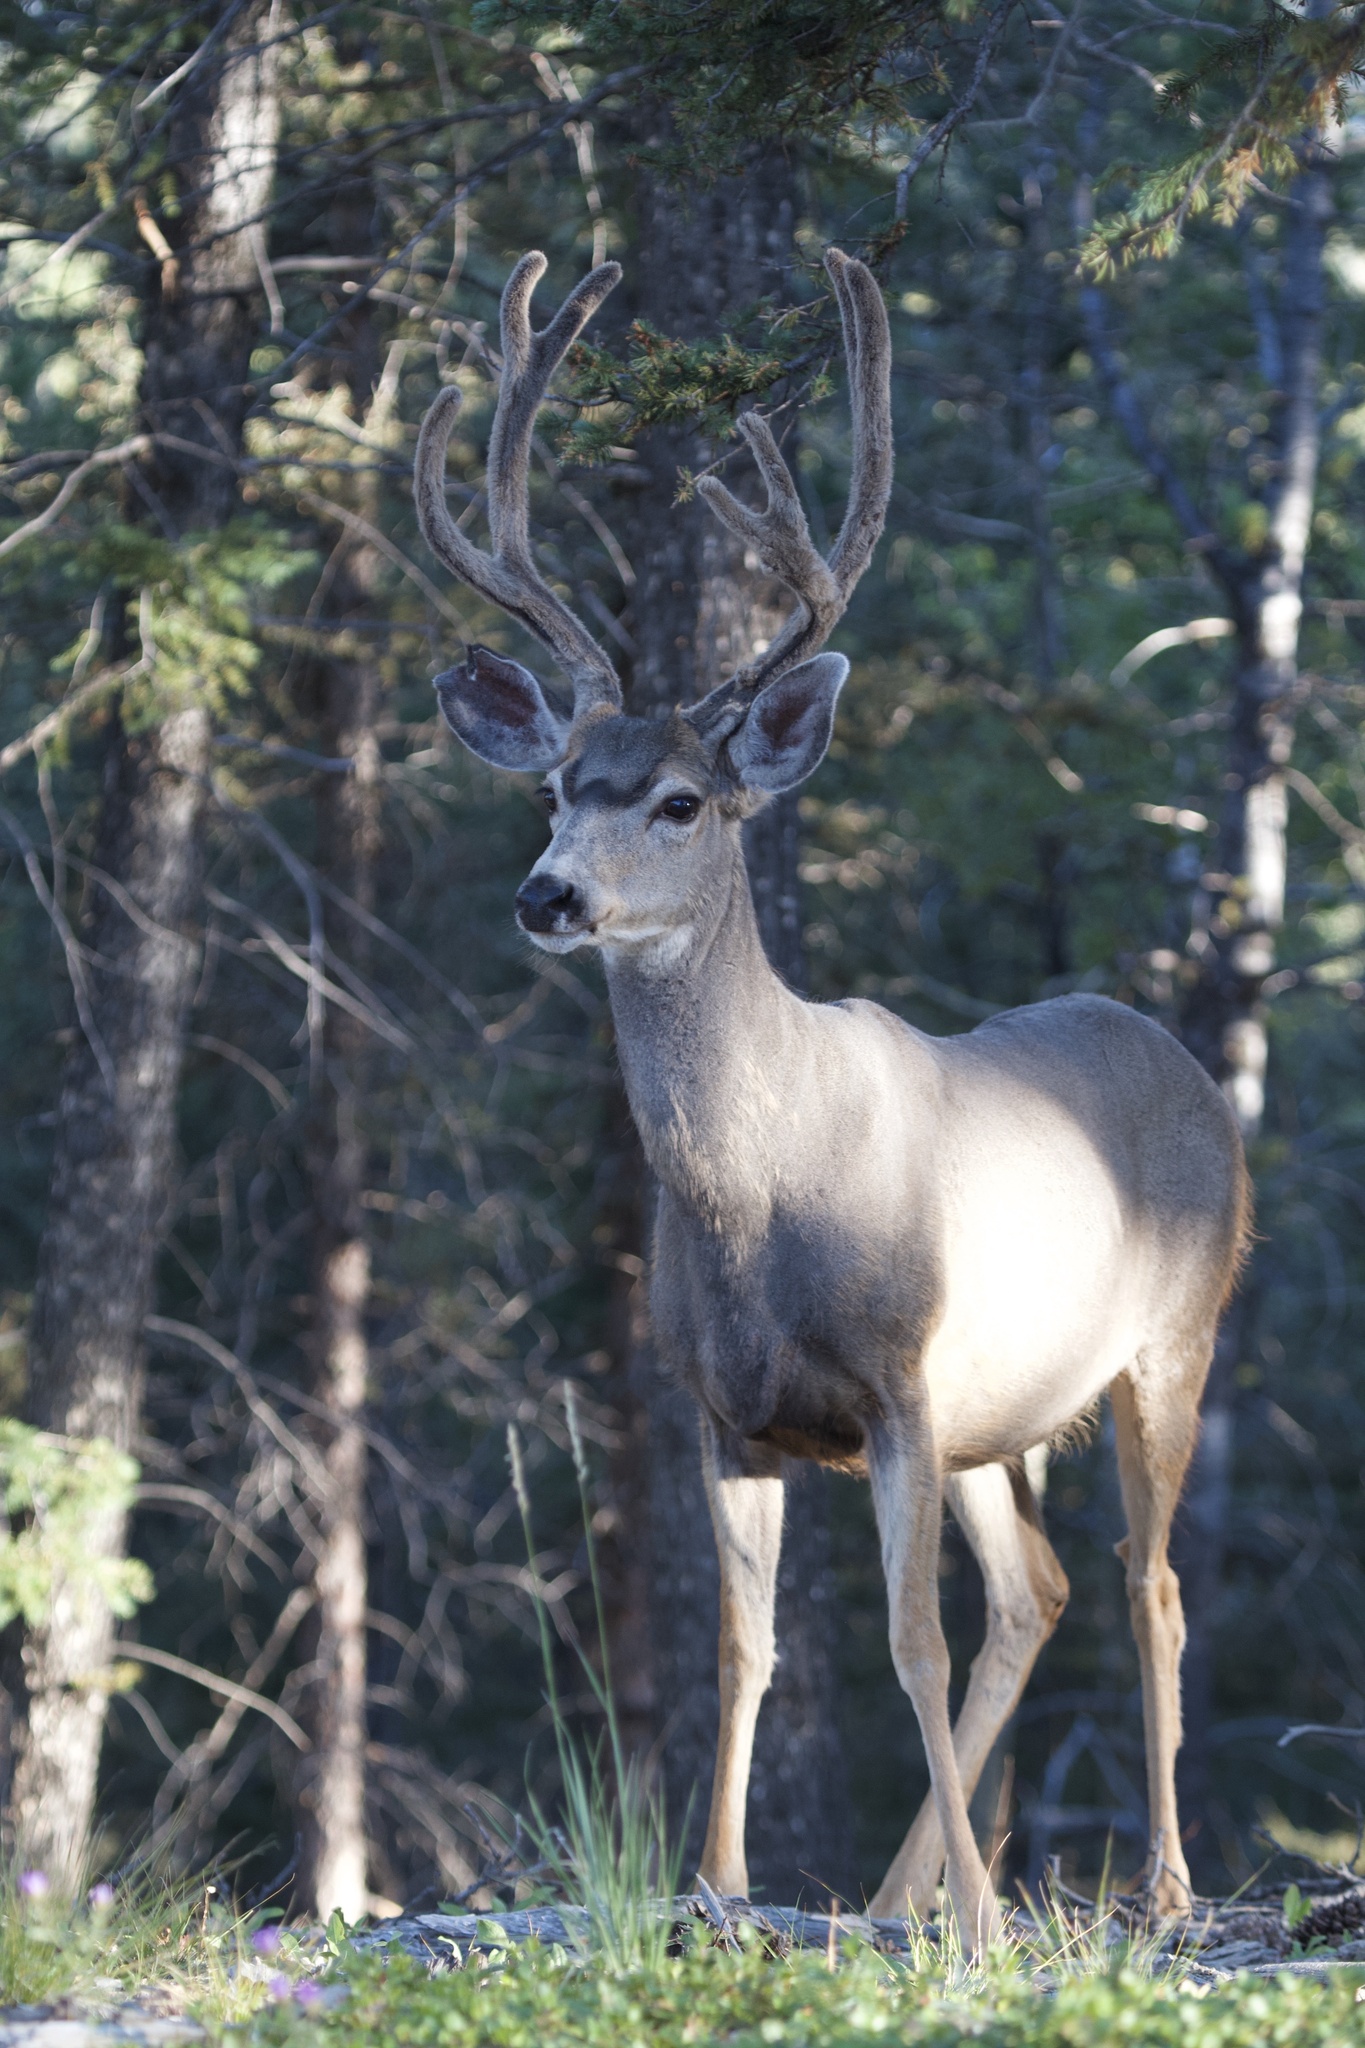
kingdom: Animalia
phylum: Chordata
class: Mammalia
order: Artiodactyla
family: Cervidae
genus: Odocoileus
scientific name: Odocoileus hemionus
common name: Mule deer
